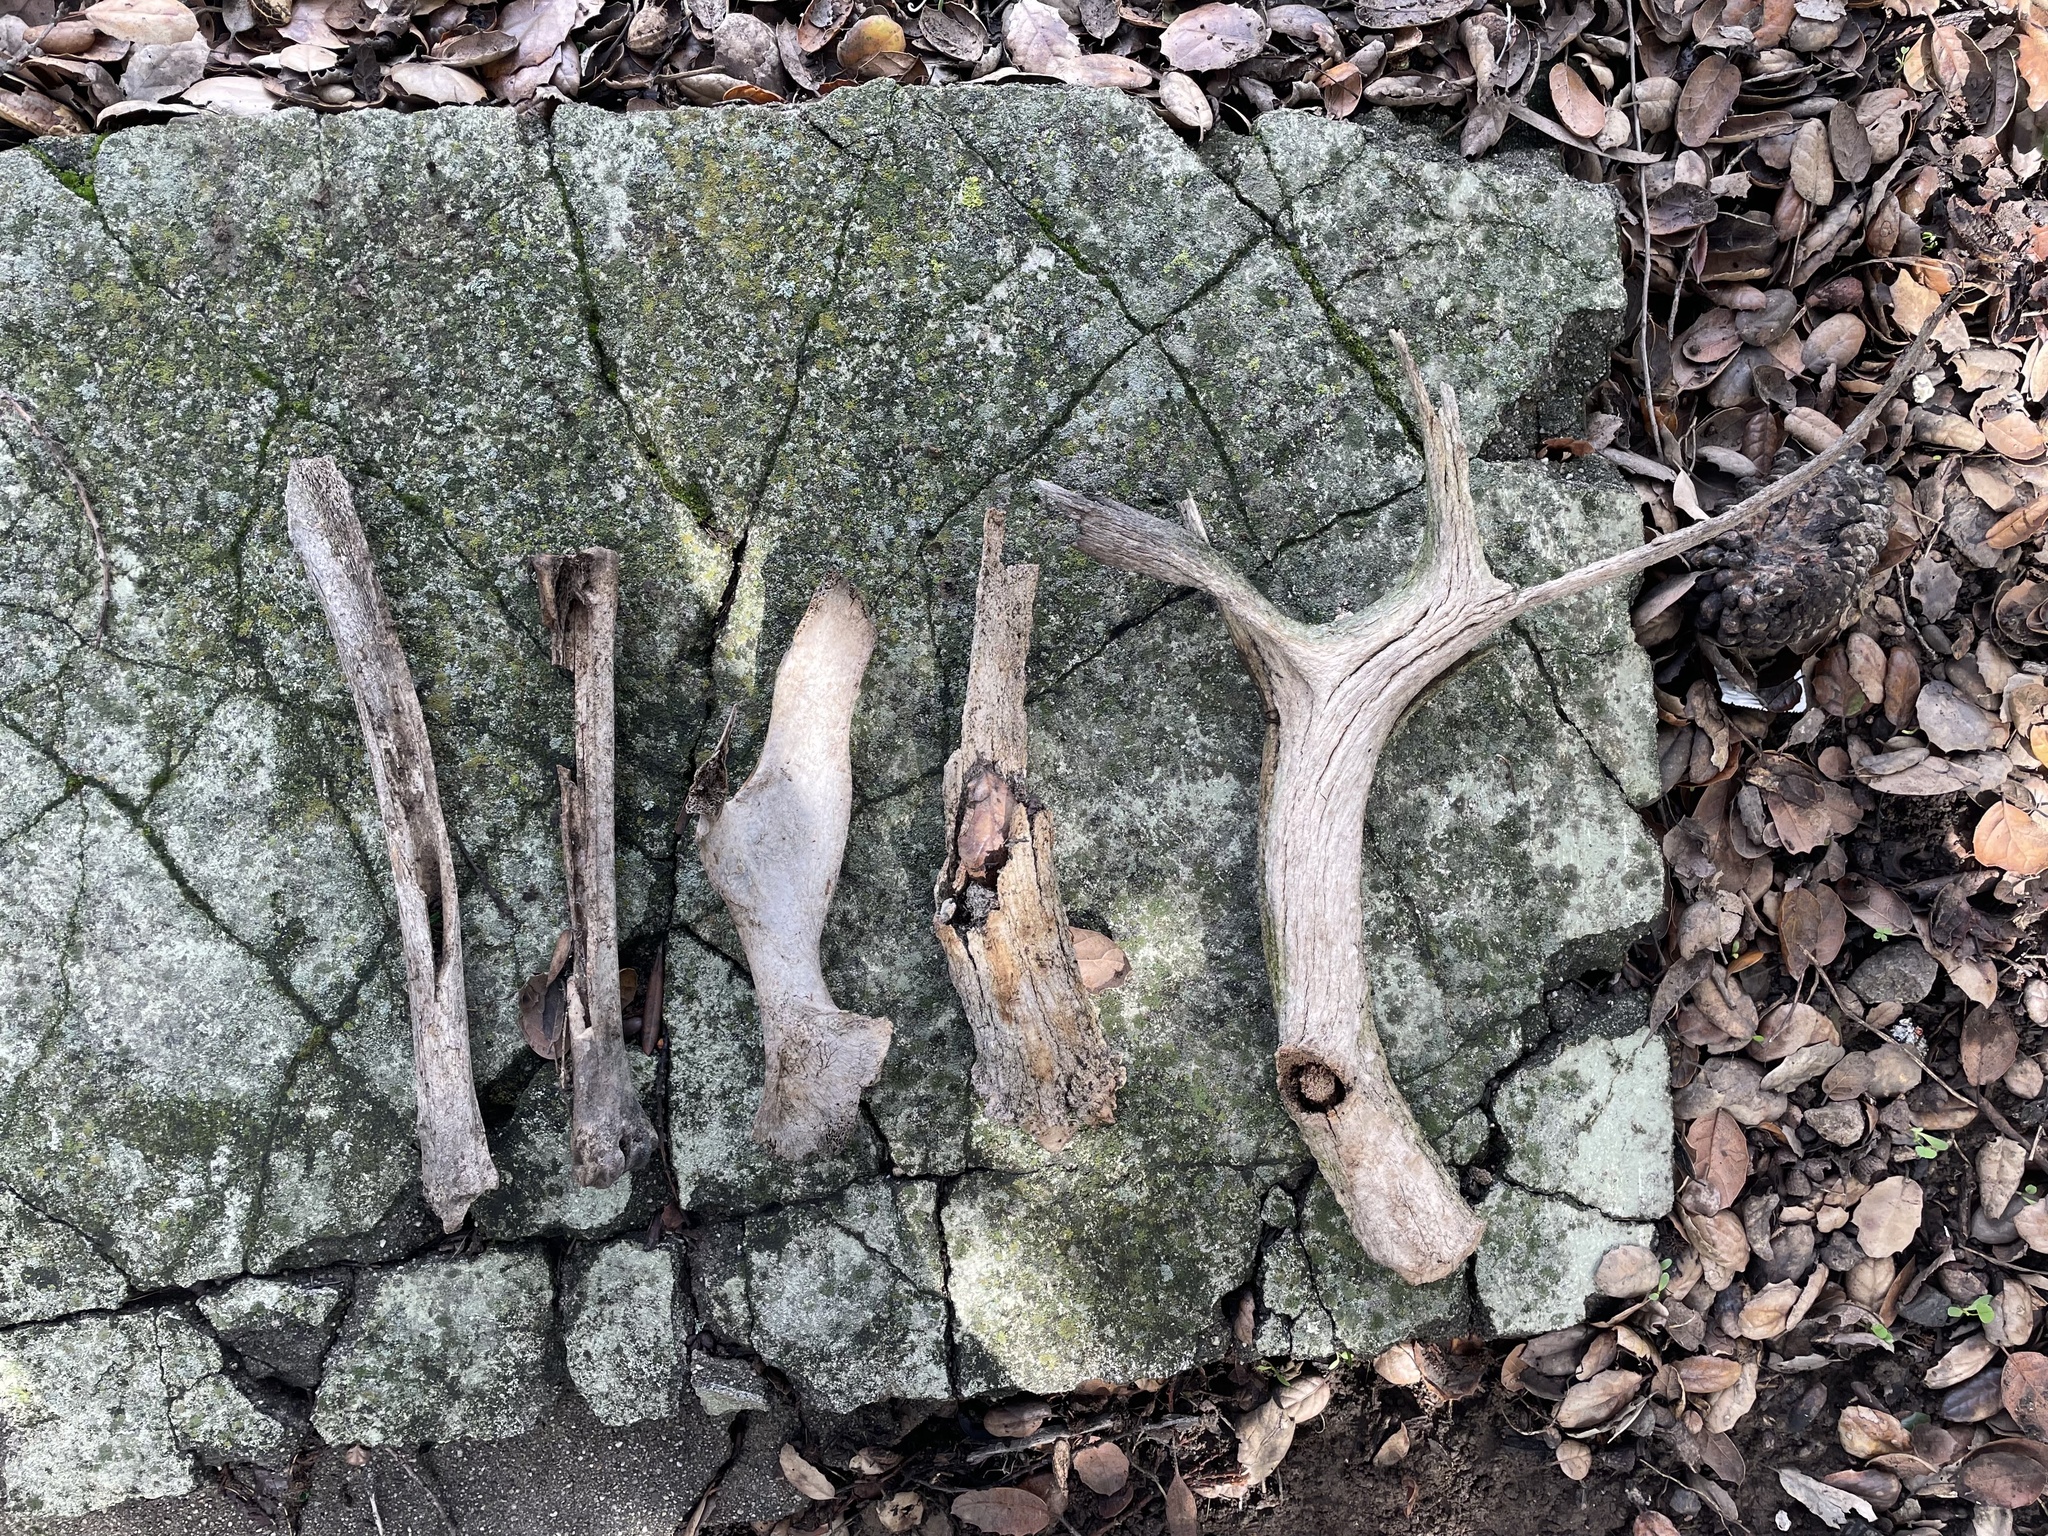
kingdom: Animalia
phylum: Chordata
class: Mammalia
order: Artiodactyla
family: Cervidae
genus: Odocoileus
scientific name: Odocoileus hemionus
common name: Mule deer
